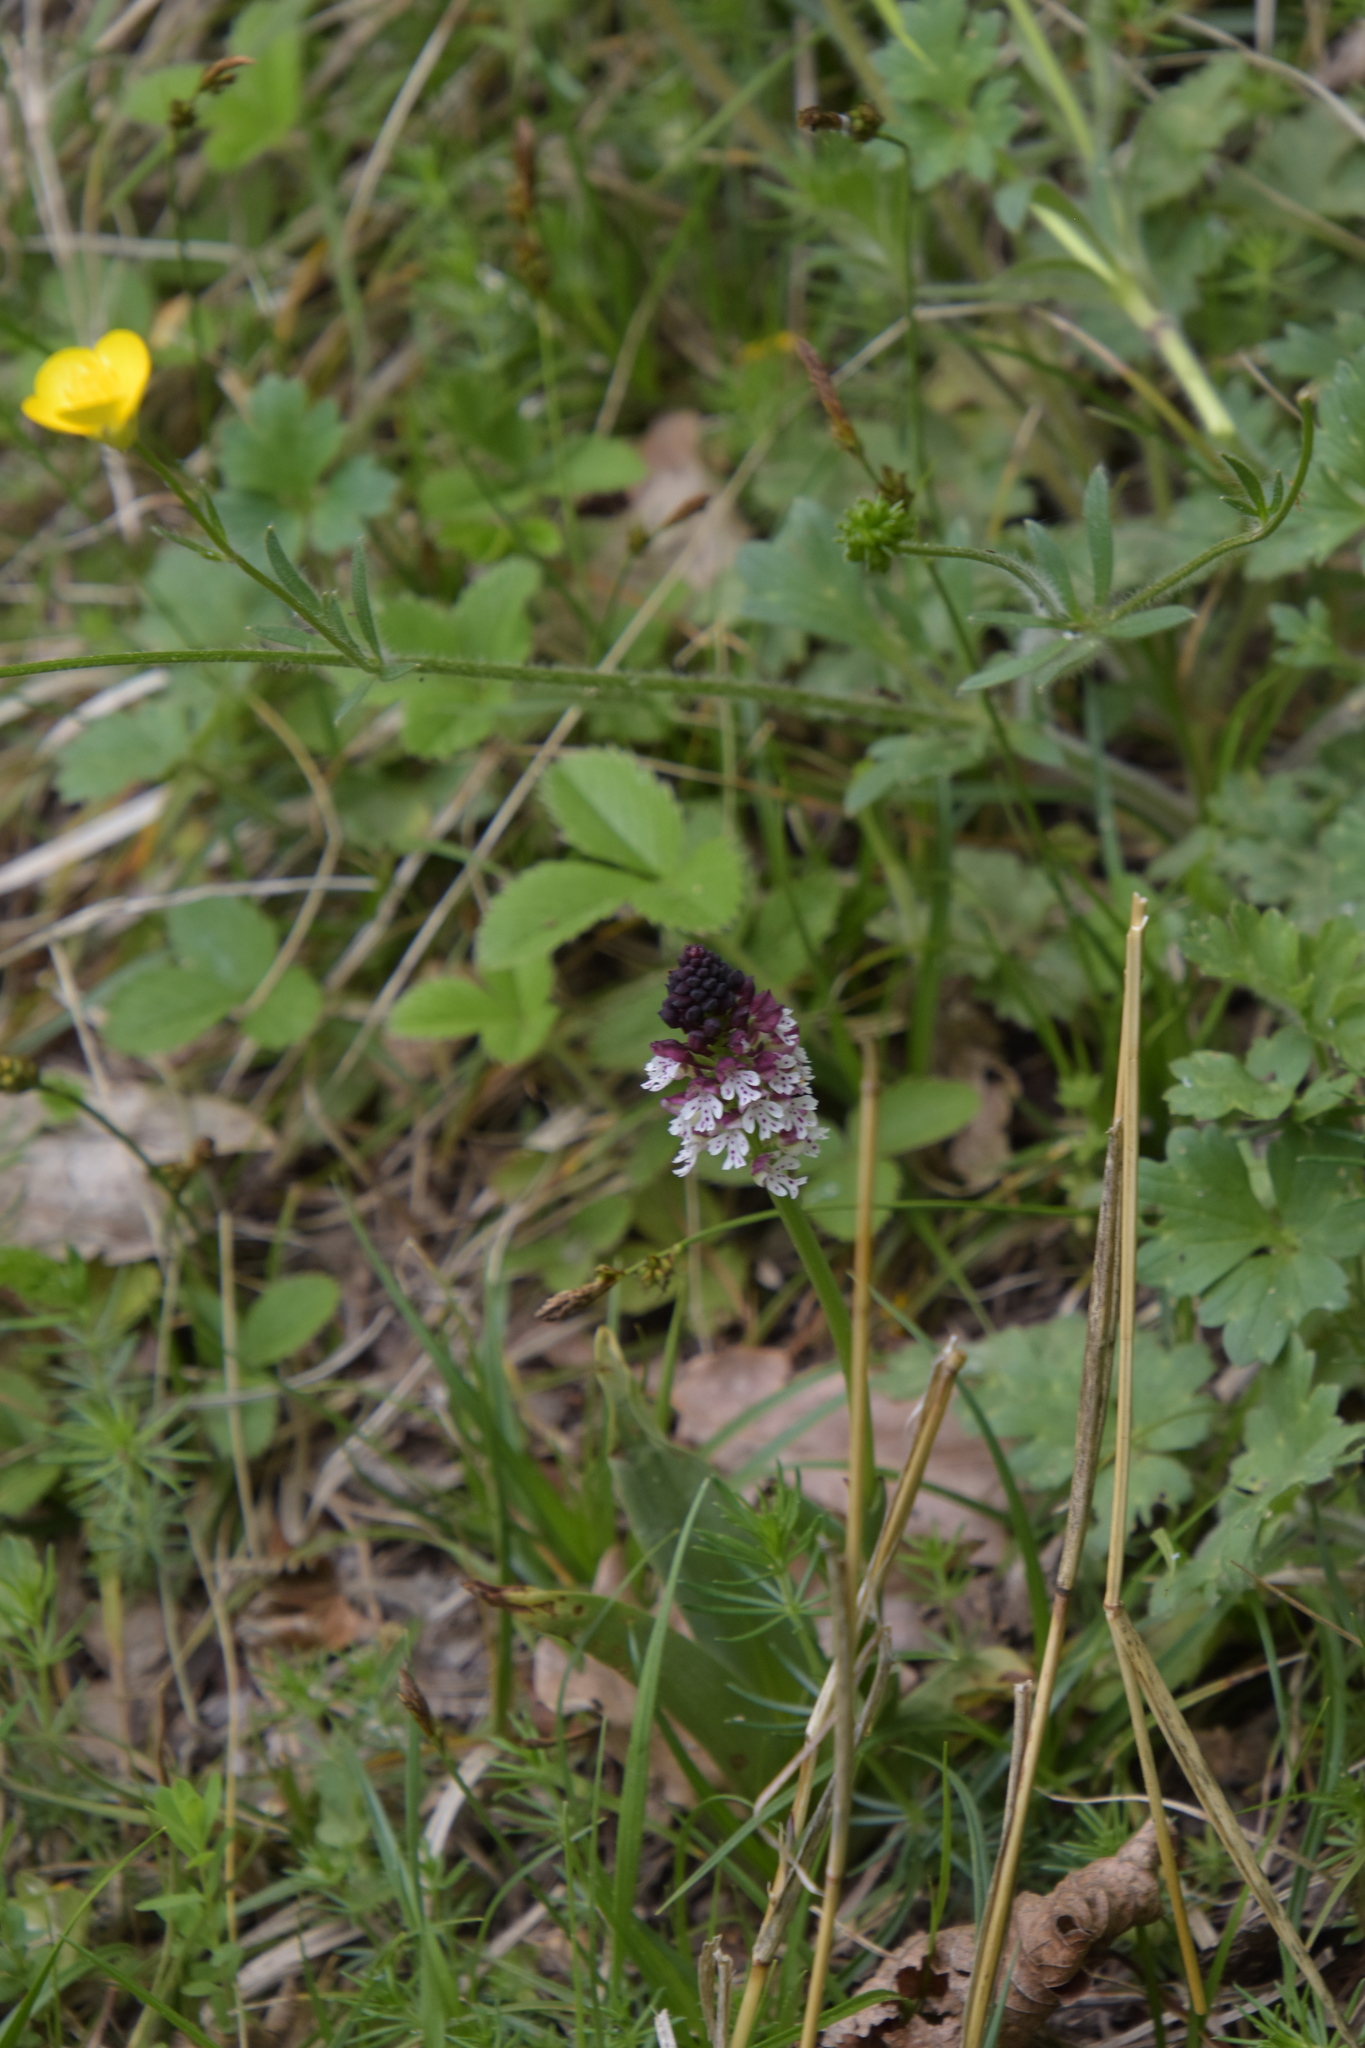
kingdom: Plantae
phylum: Tracheophyta
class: Liliopsida
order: Asparagales
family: Orchidaceae
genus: Neotinea
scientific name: Neotinea ustulata
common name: Burnt orchid
